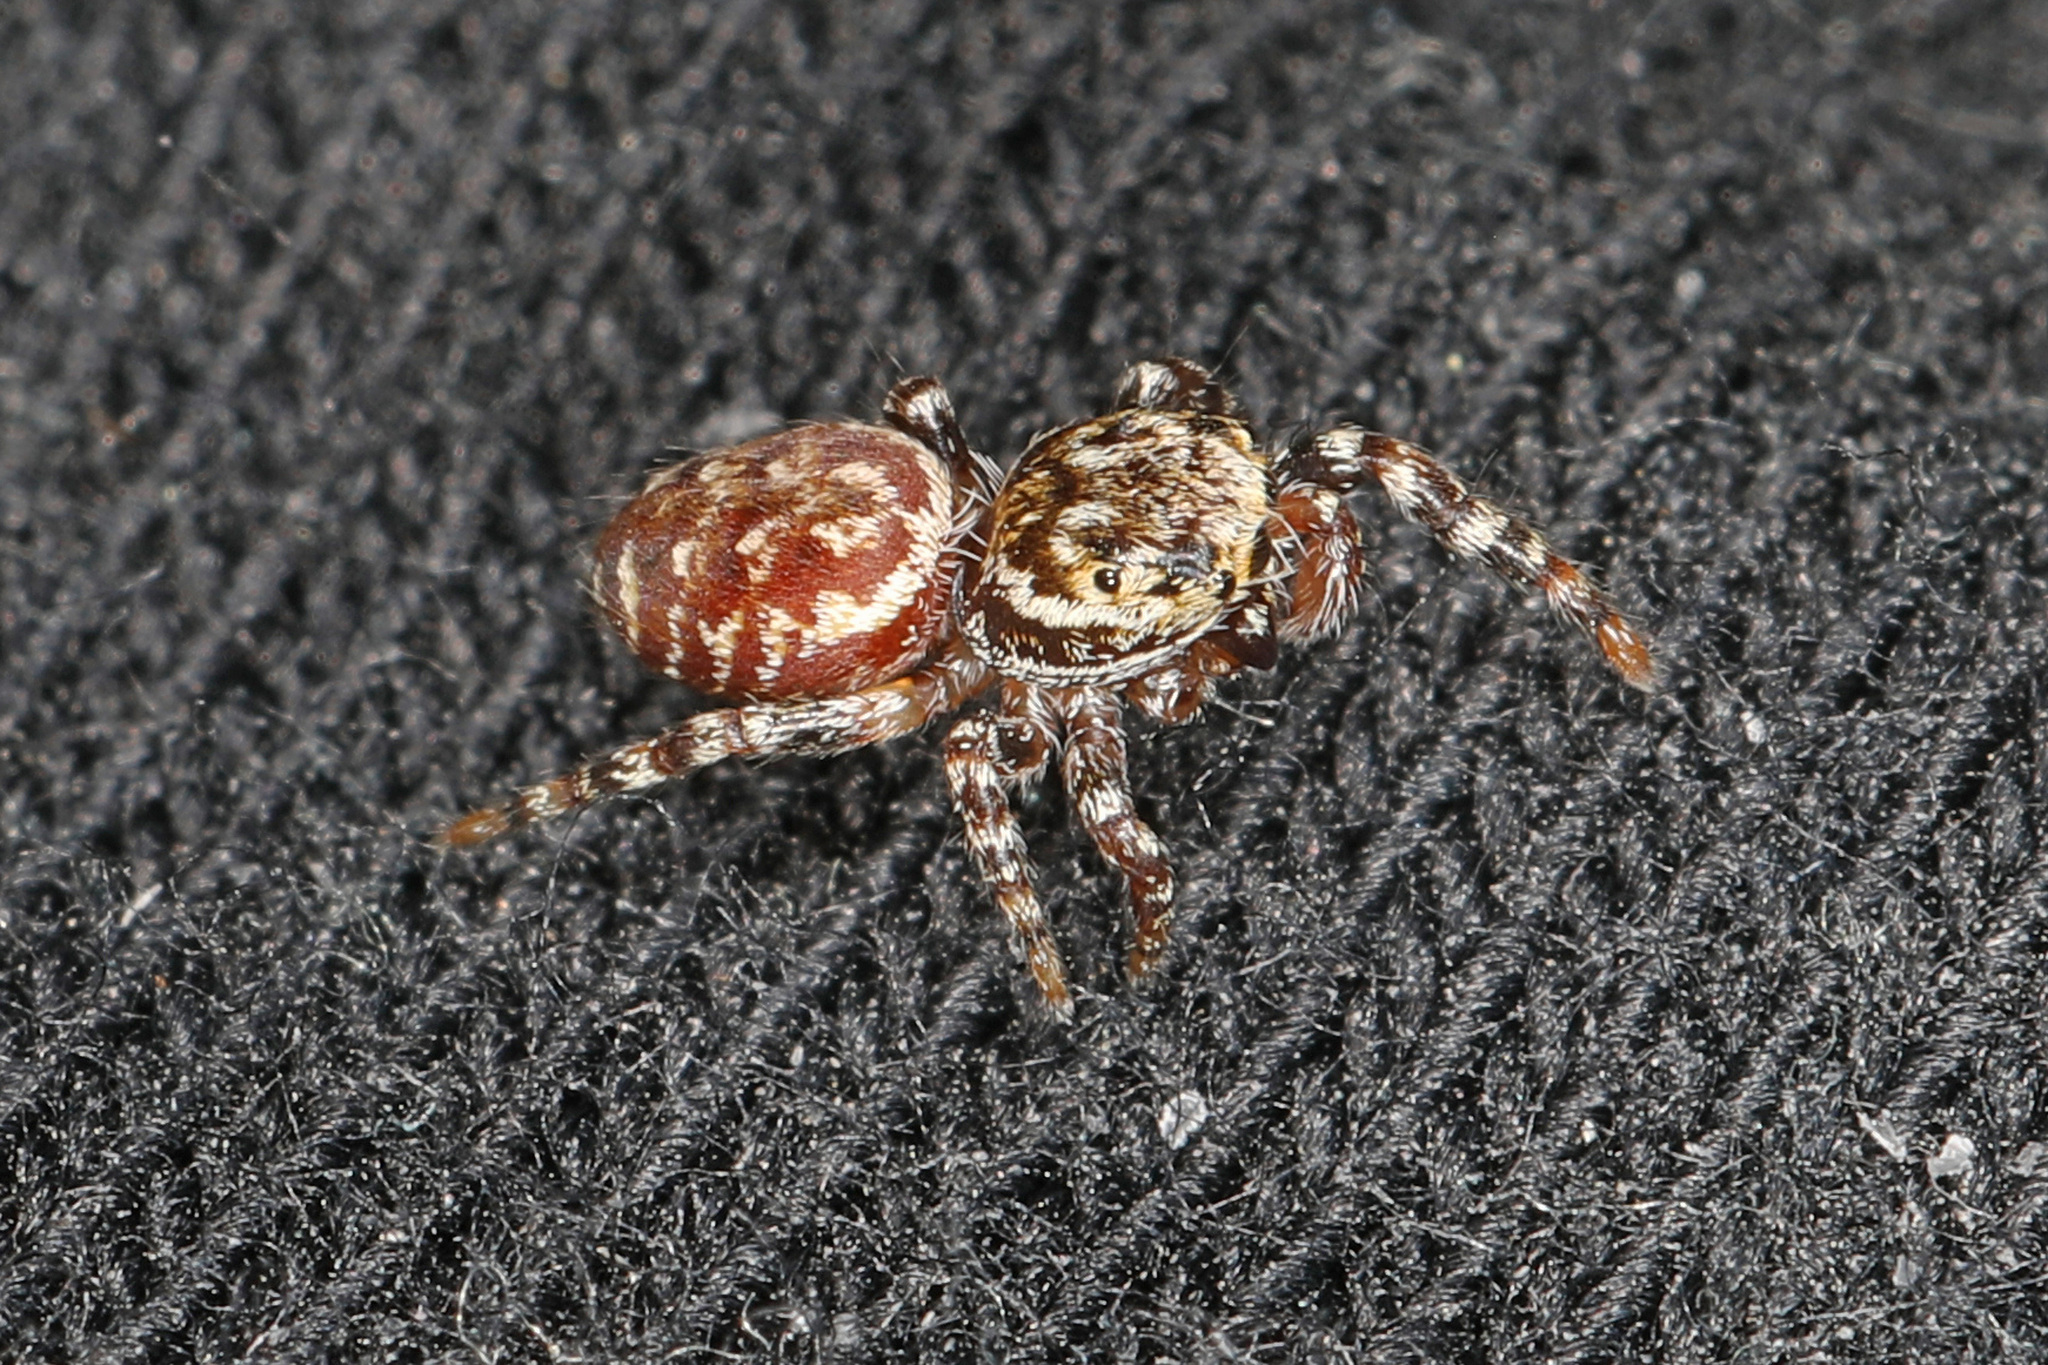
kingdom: Animalia
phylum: Arthropoda
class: Arachnida
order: Araneae
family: Salticidae
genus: Pelegrina
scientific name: Pelegrina galathea
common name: Jumping spiders
